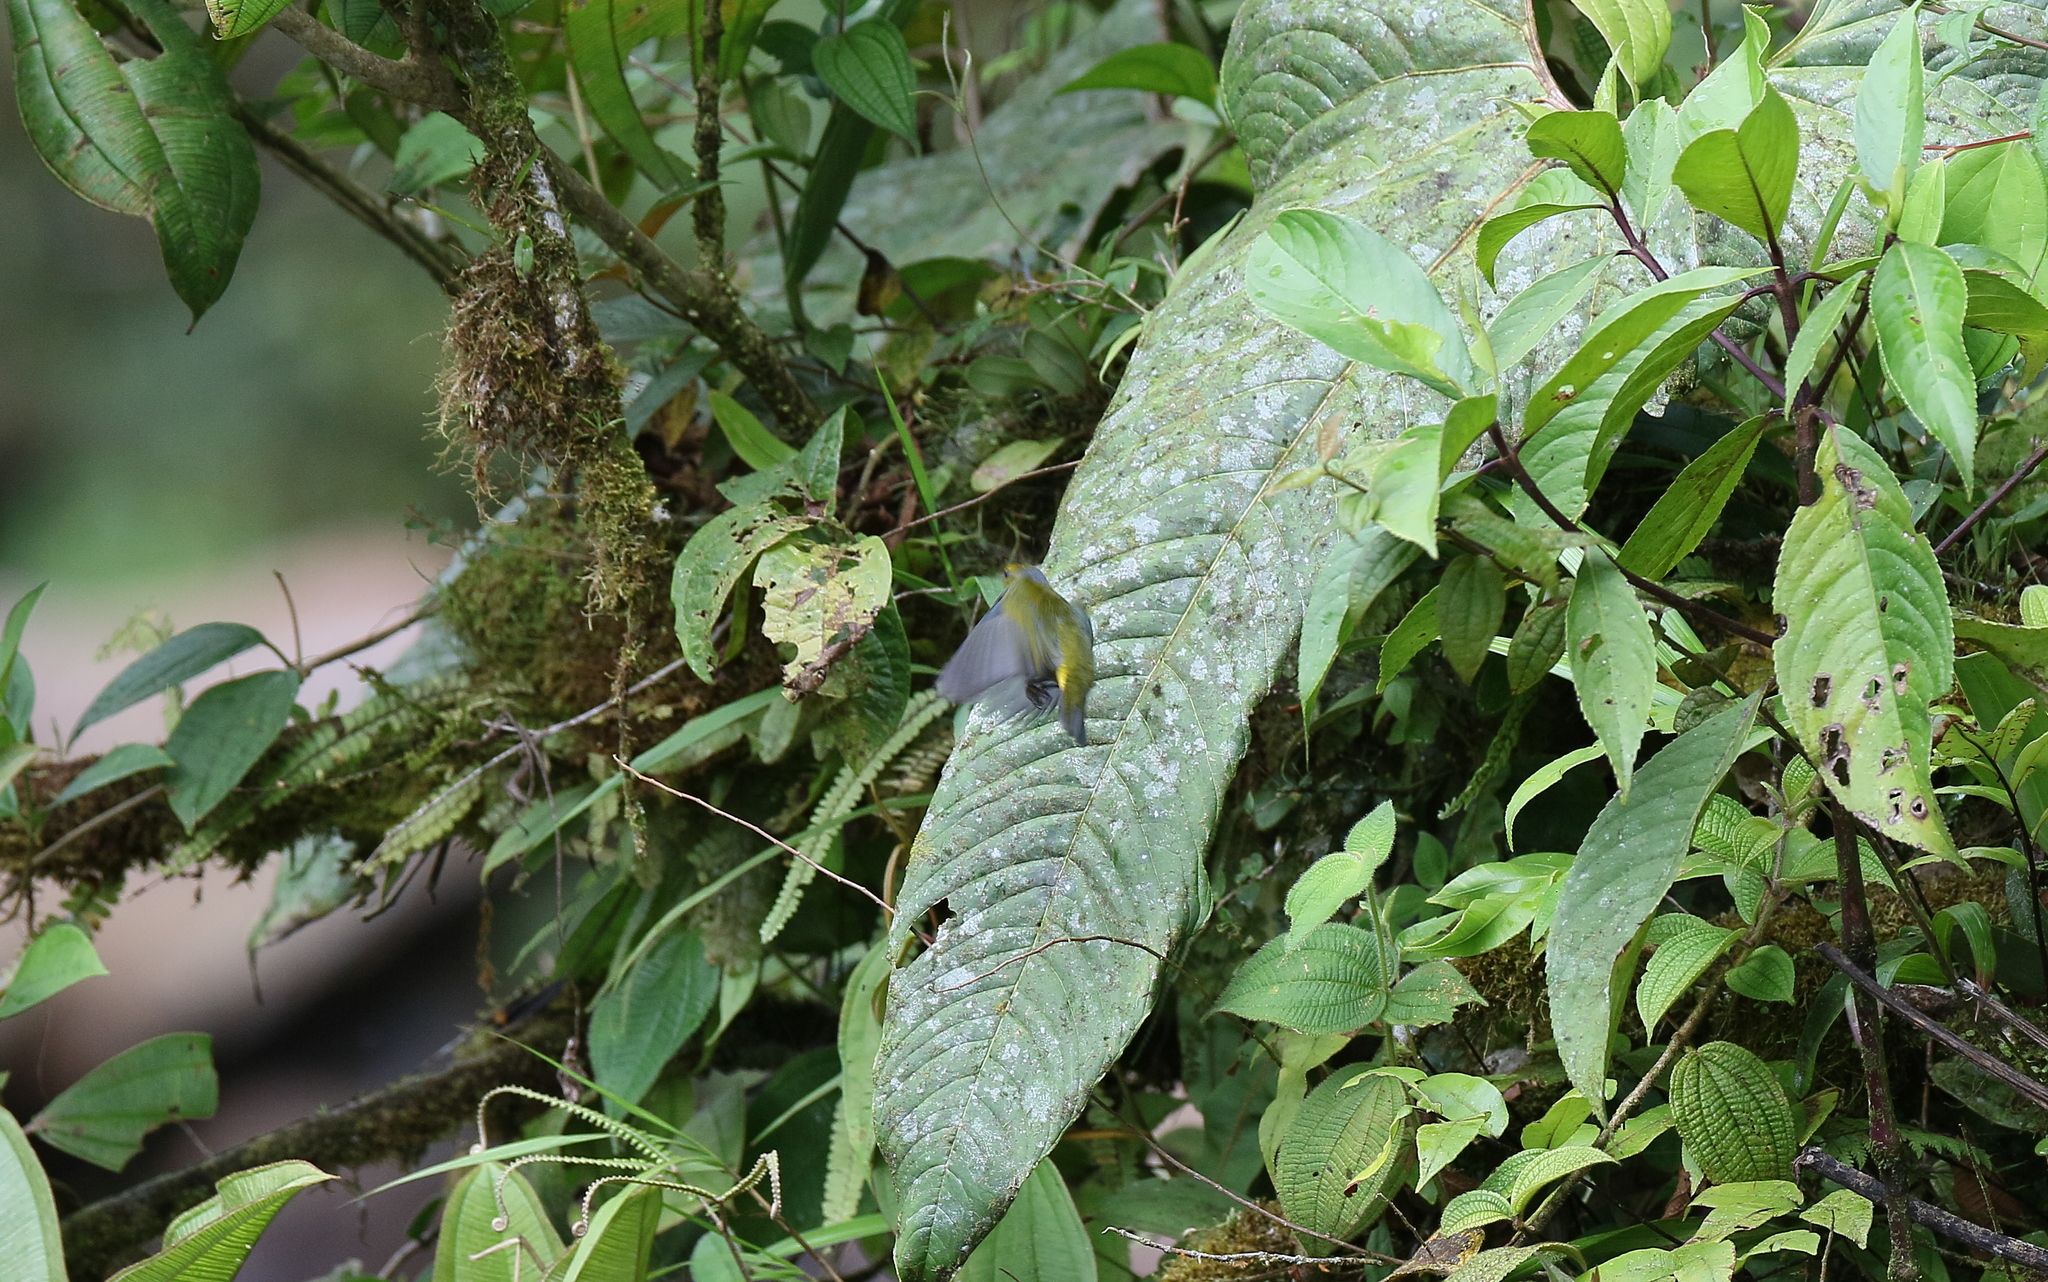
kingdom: Animalia
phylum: Chordata
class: Aves
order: Passeriformes
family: Fringillidae
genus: Euphonia
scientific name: Euphonia xanthogaster
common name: Orange-bellied euphonia
